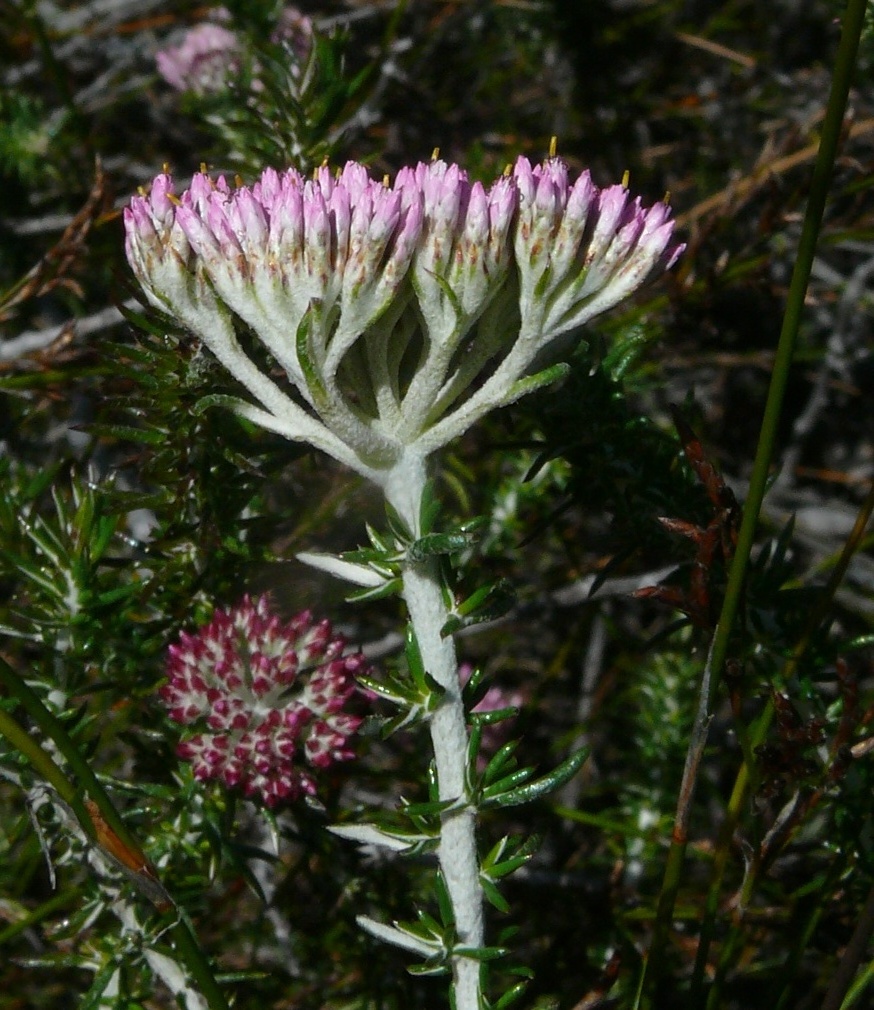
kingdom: Plantae
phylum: Tracheophyta
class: Magnoliopsida
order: Asterales
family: Asteraceae
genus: Metalasia
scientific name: Metalasia fastigiata
